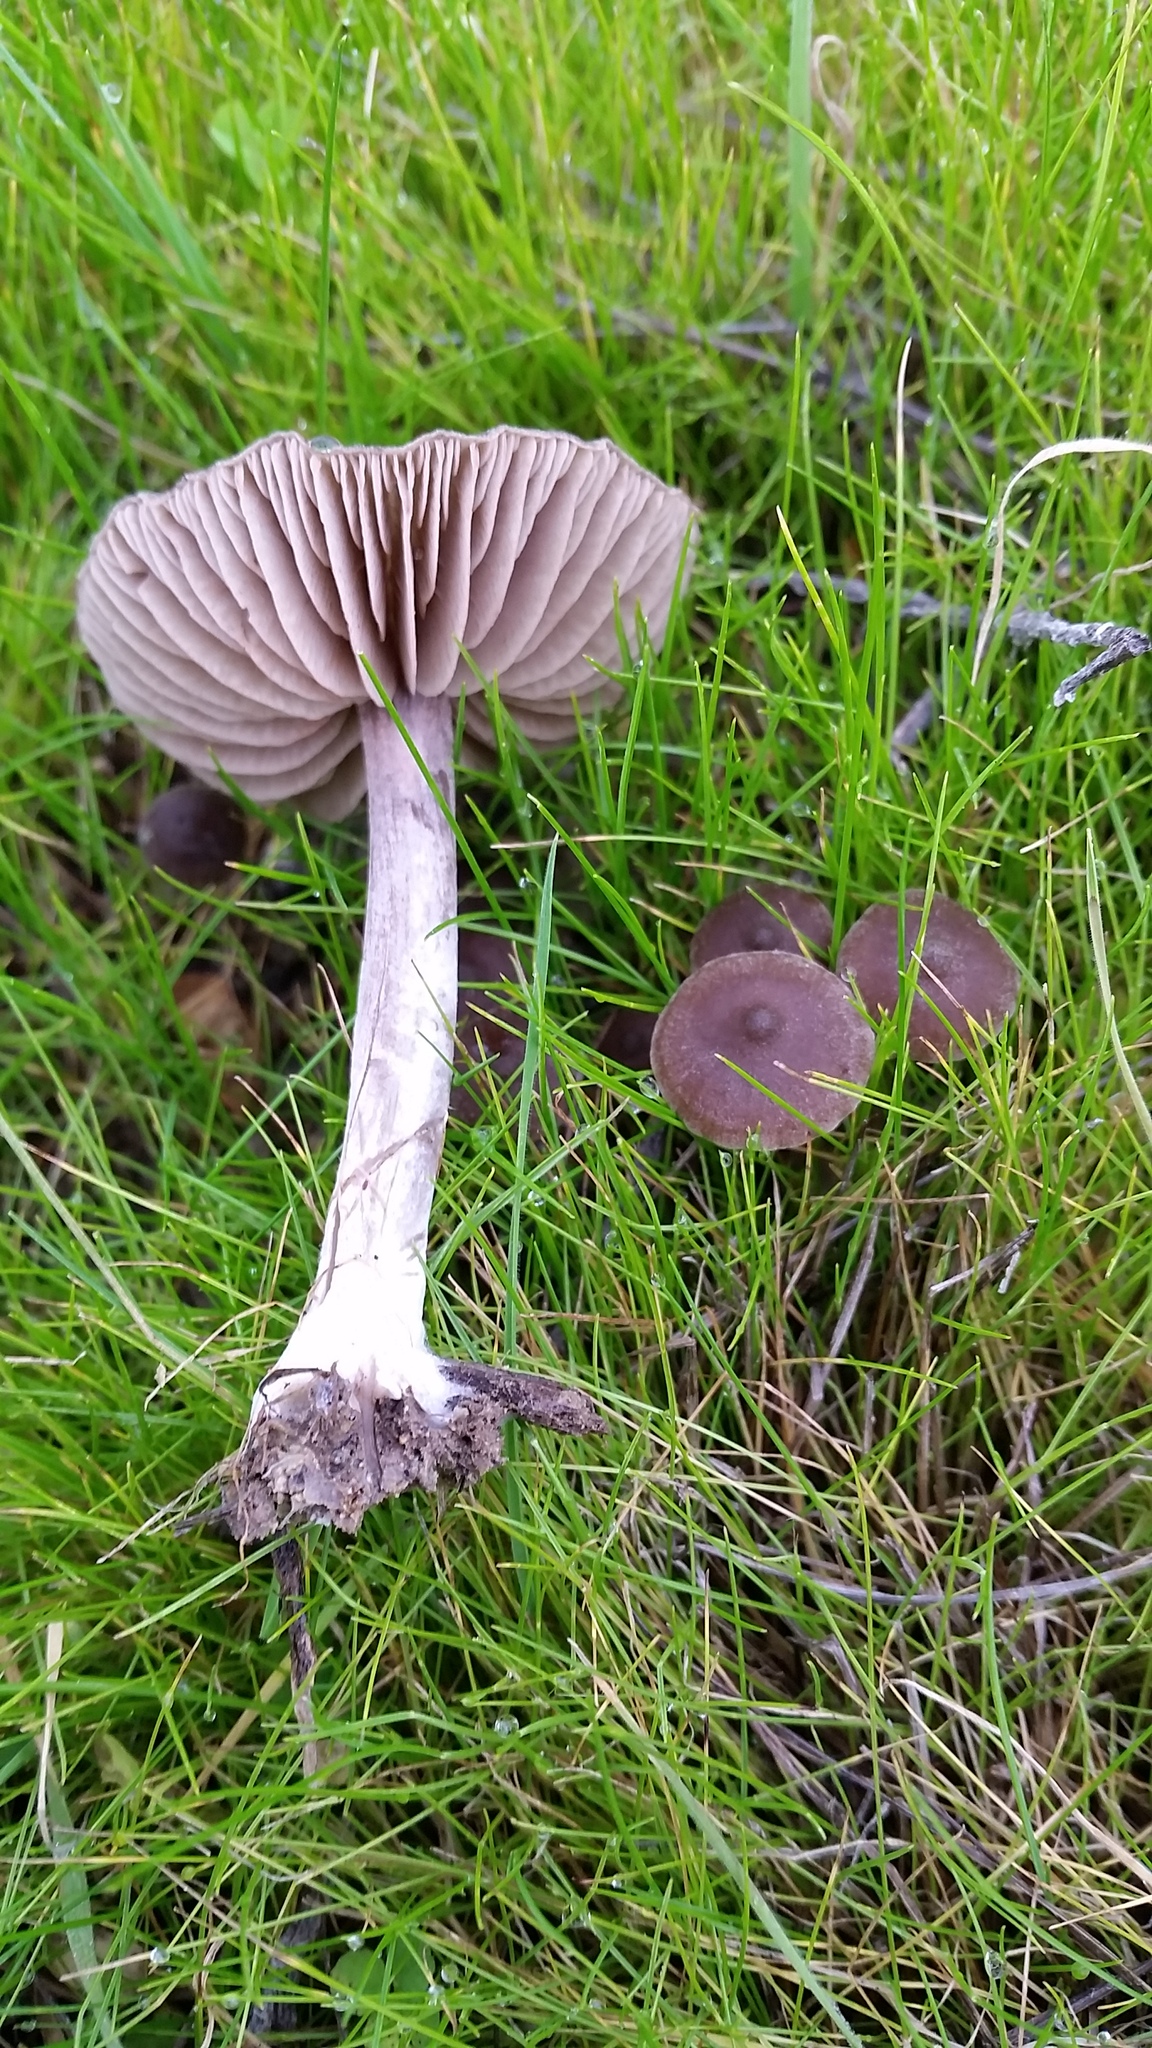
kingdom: Fungi
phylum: Basidiomycota
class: Agaricomycetes
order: Agaricales
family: Entolomataceae
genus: Entoloma
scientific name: Entoloma sericeum
